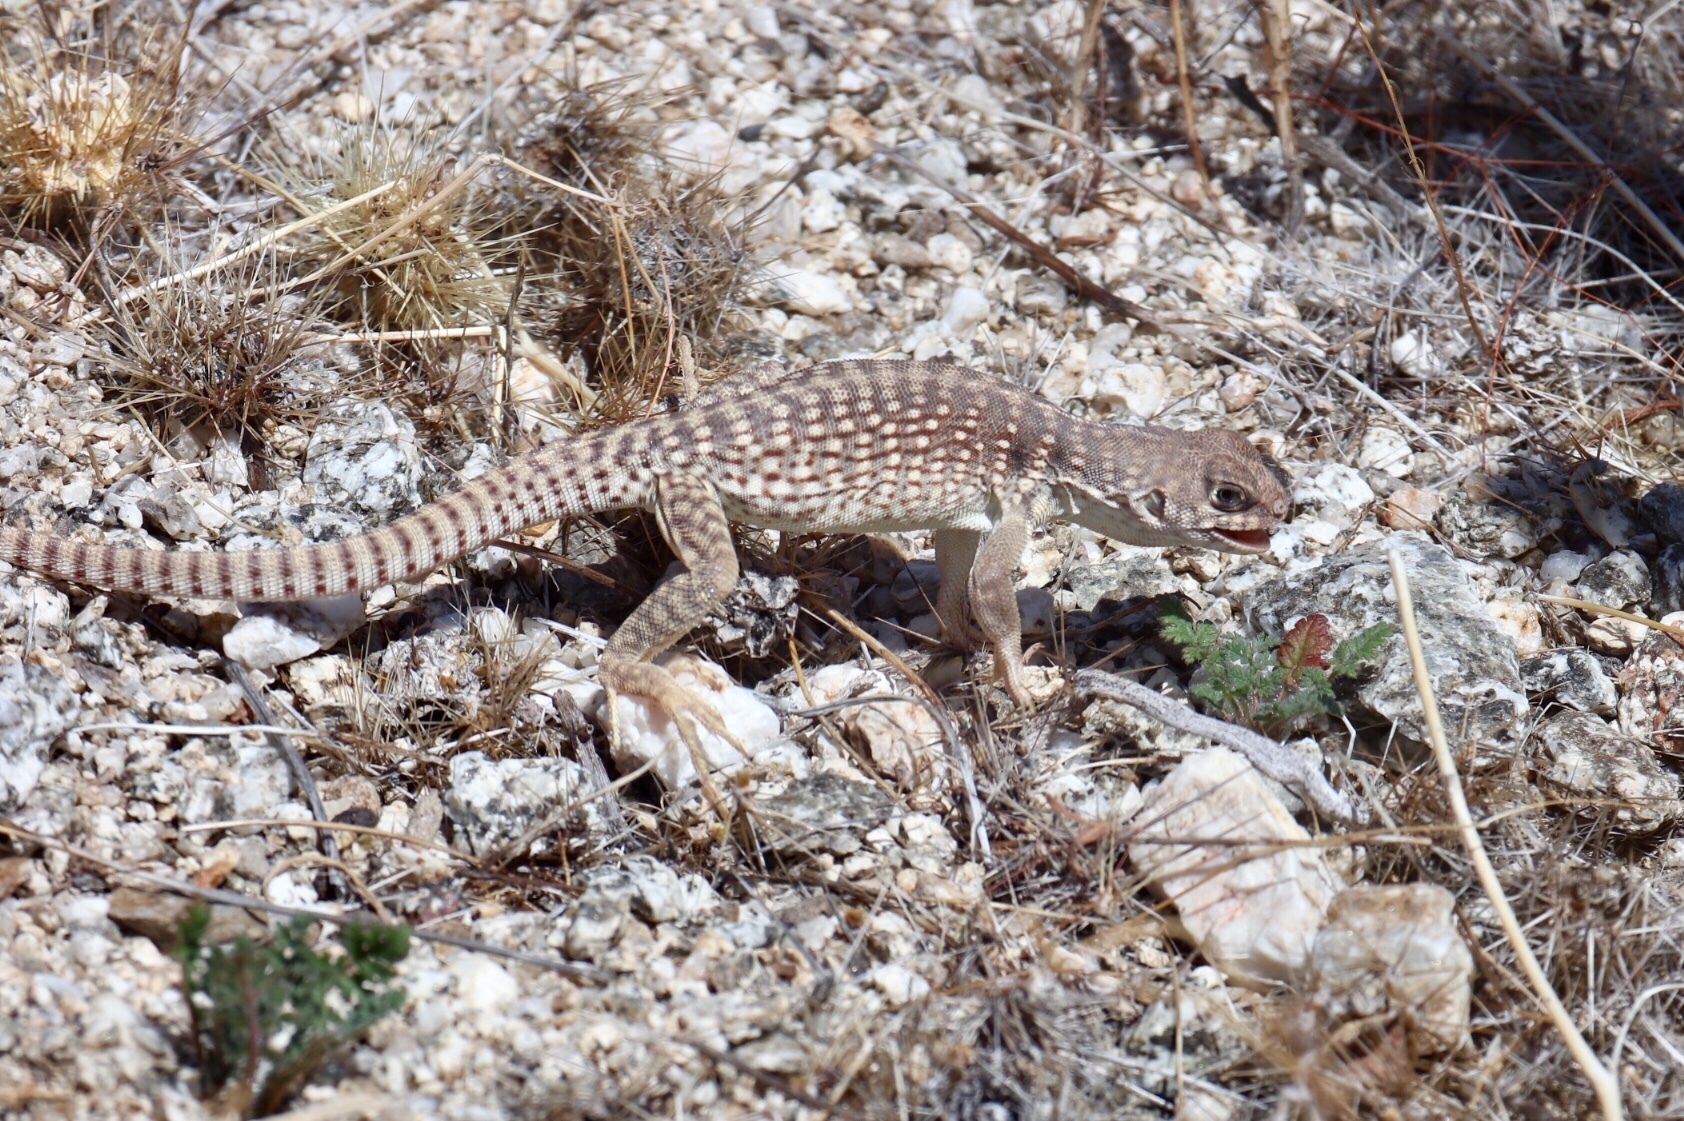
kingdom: Animalia
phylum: Chordata
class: Squamata
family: Iguanidae
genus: Dipsosaurus
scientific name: Dipsosaurus dorsalis
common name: Desert iguana
